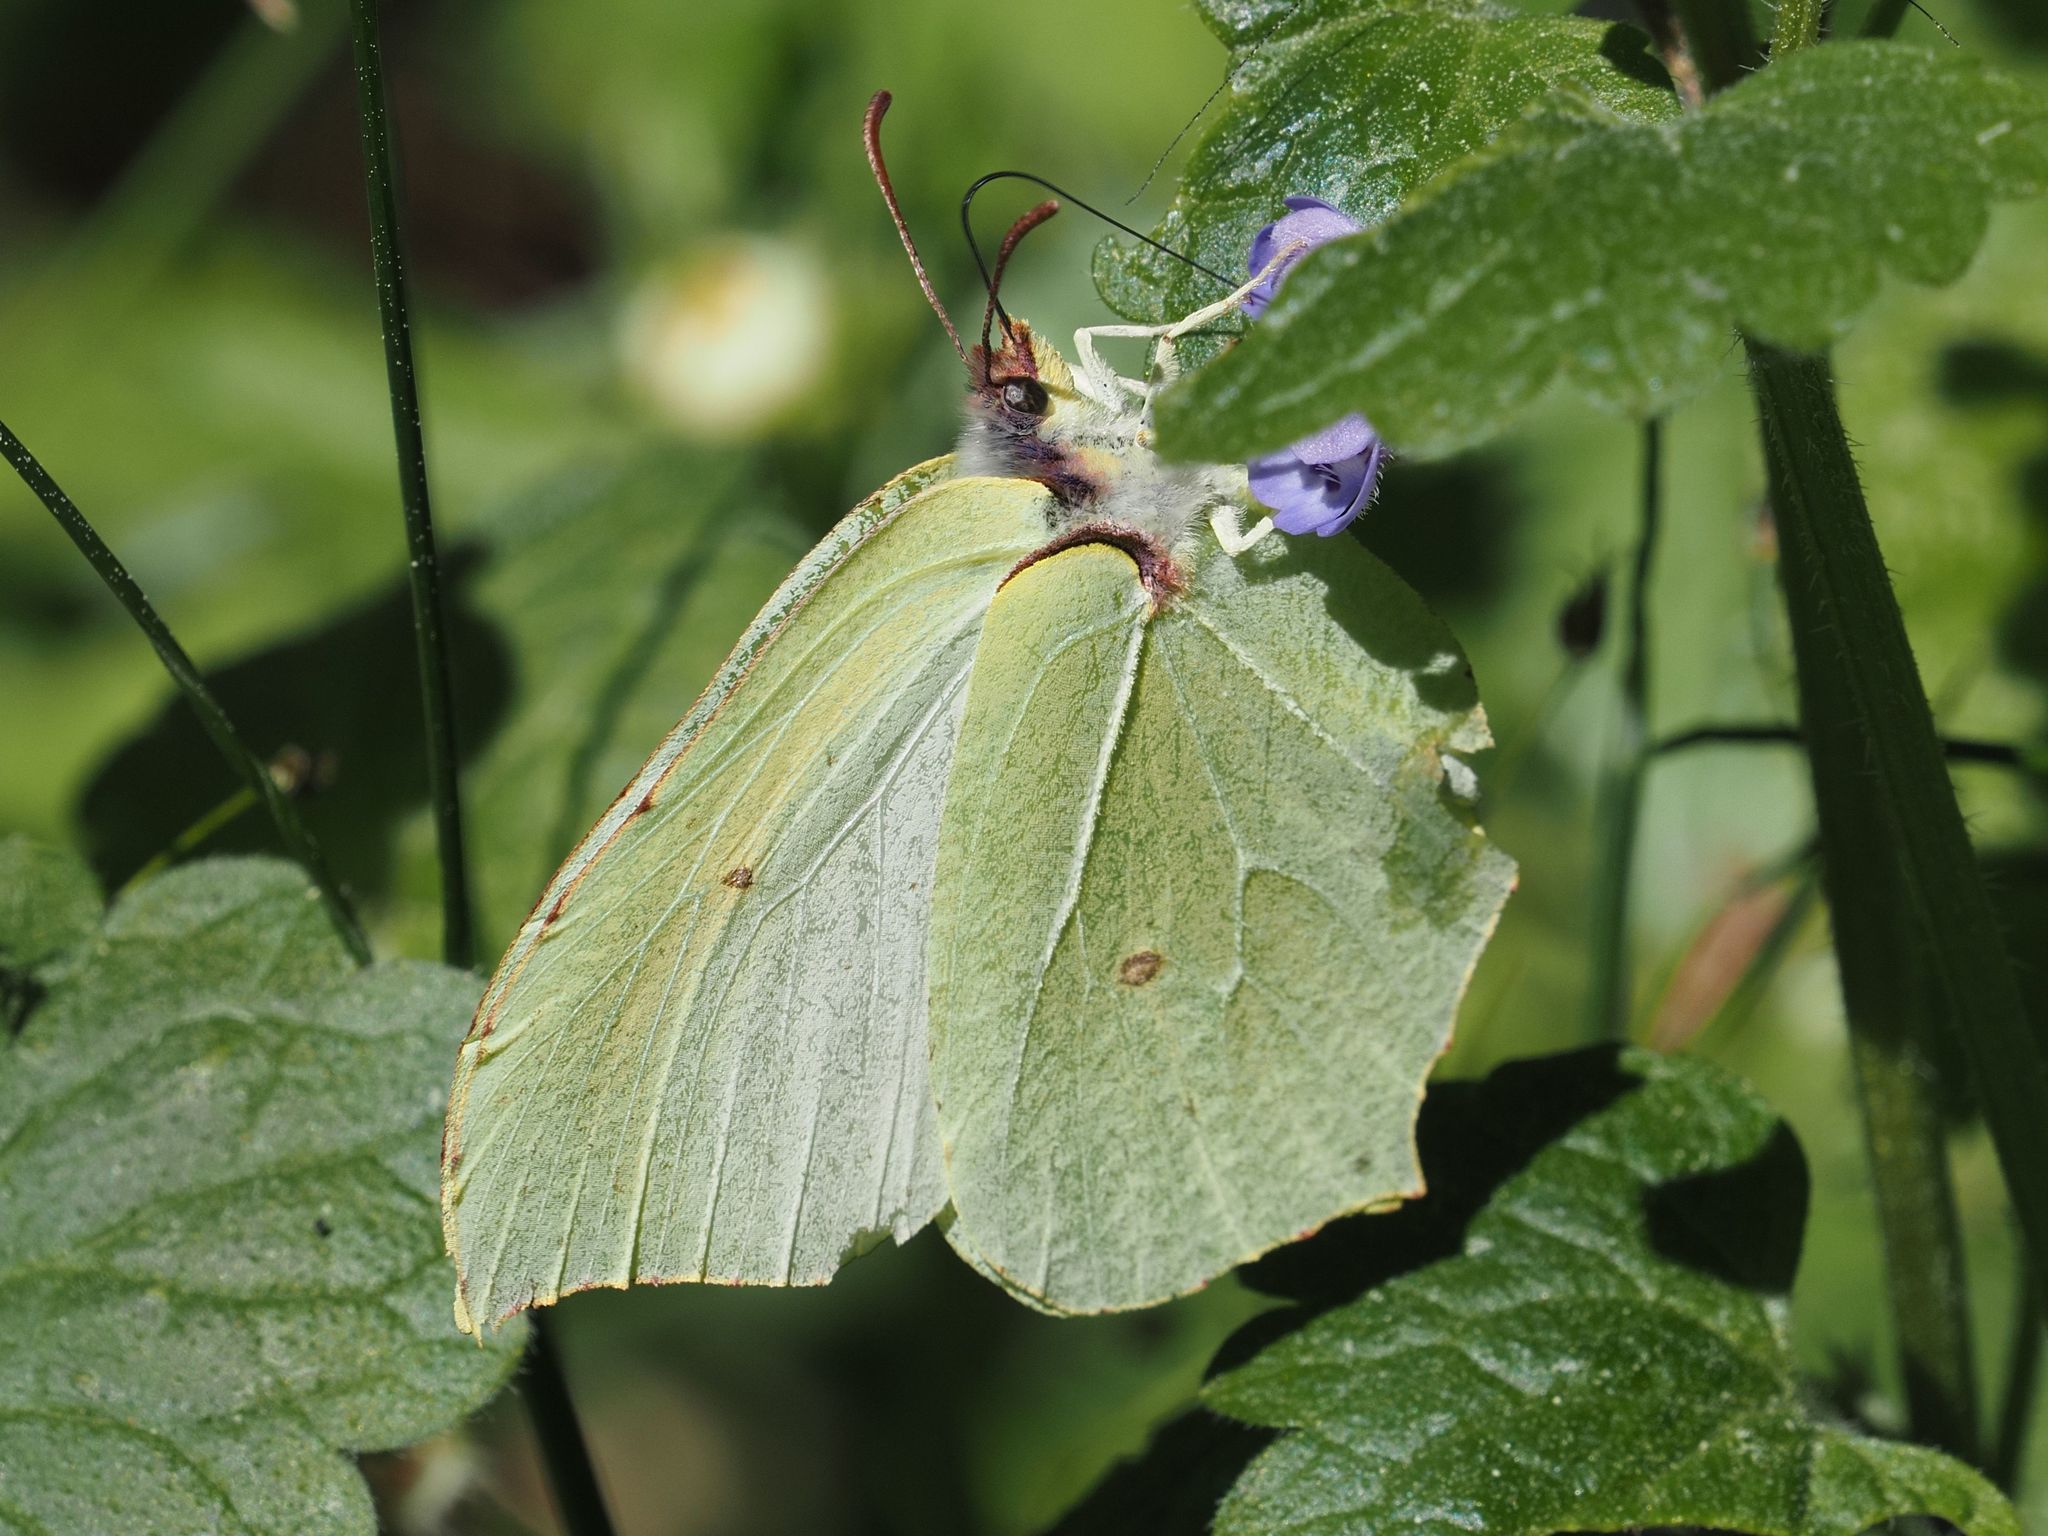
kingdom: Animalia
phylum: Arthropoda
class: Insecta
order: Lepidoptera
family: Pieridae
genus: Gonepteryx
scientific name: Gonepteryx rhamni
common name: Brimstone
